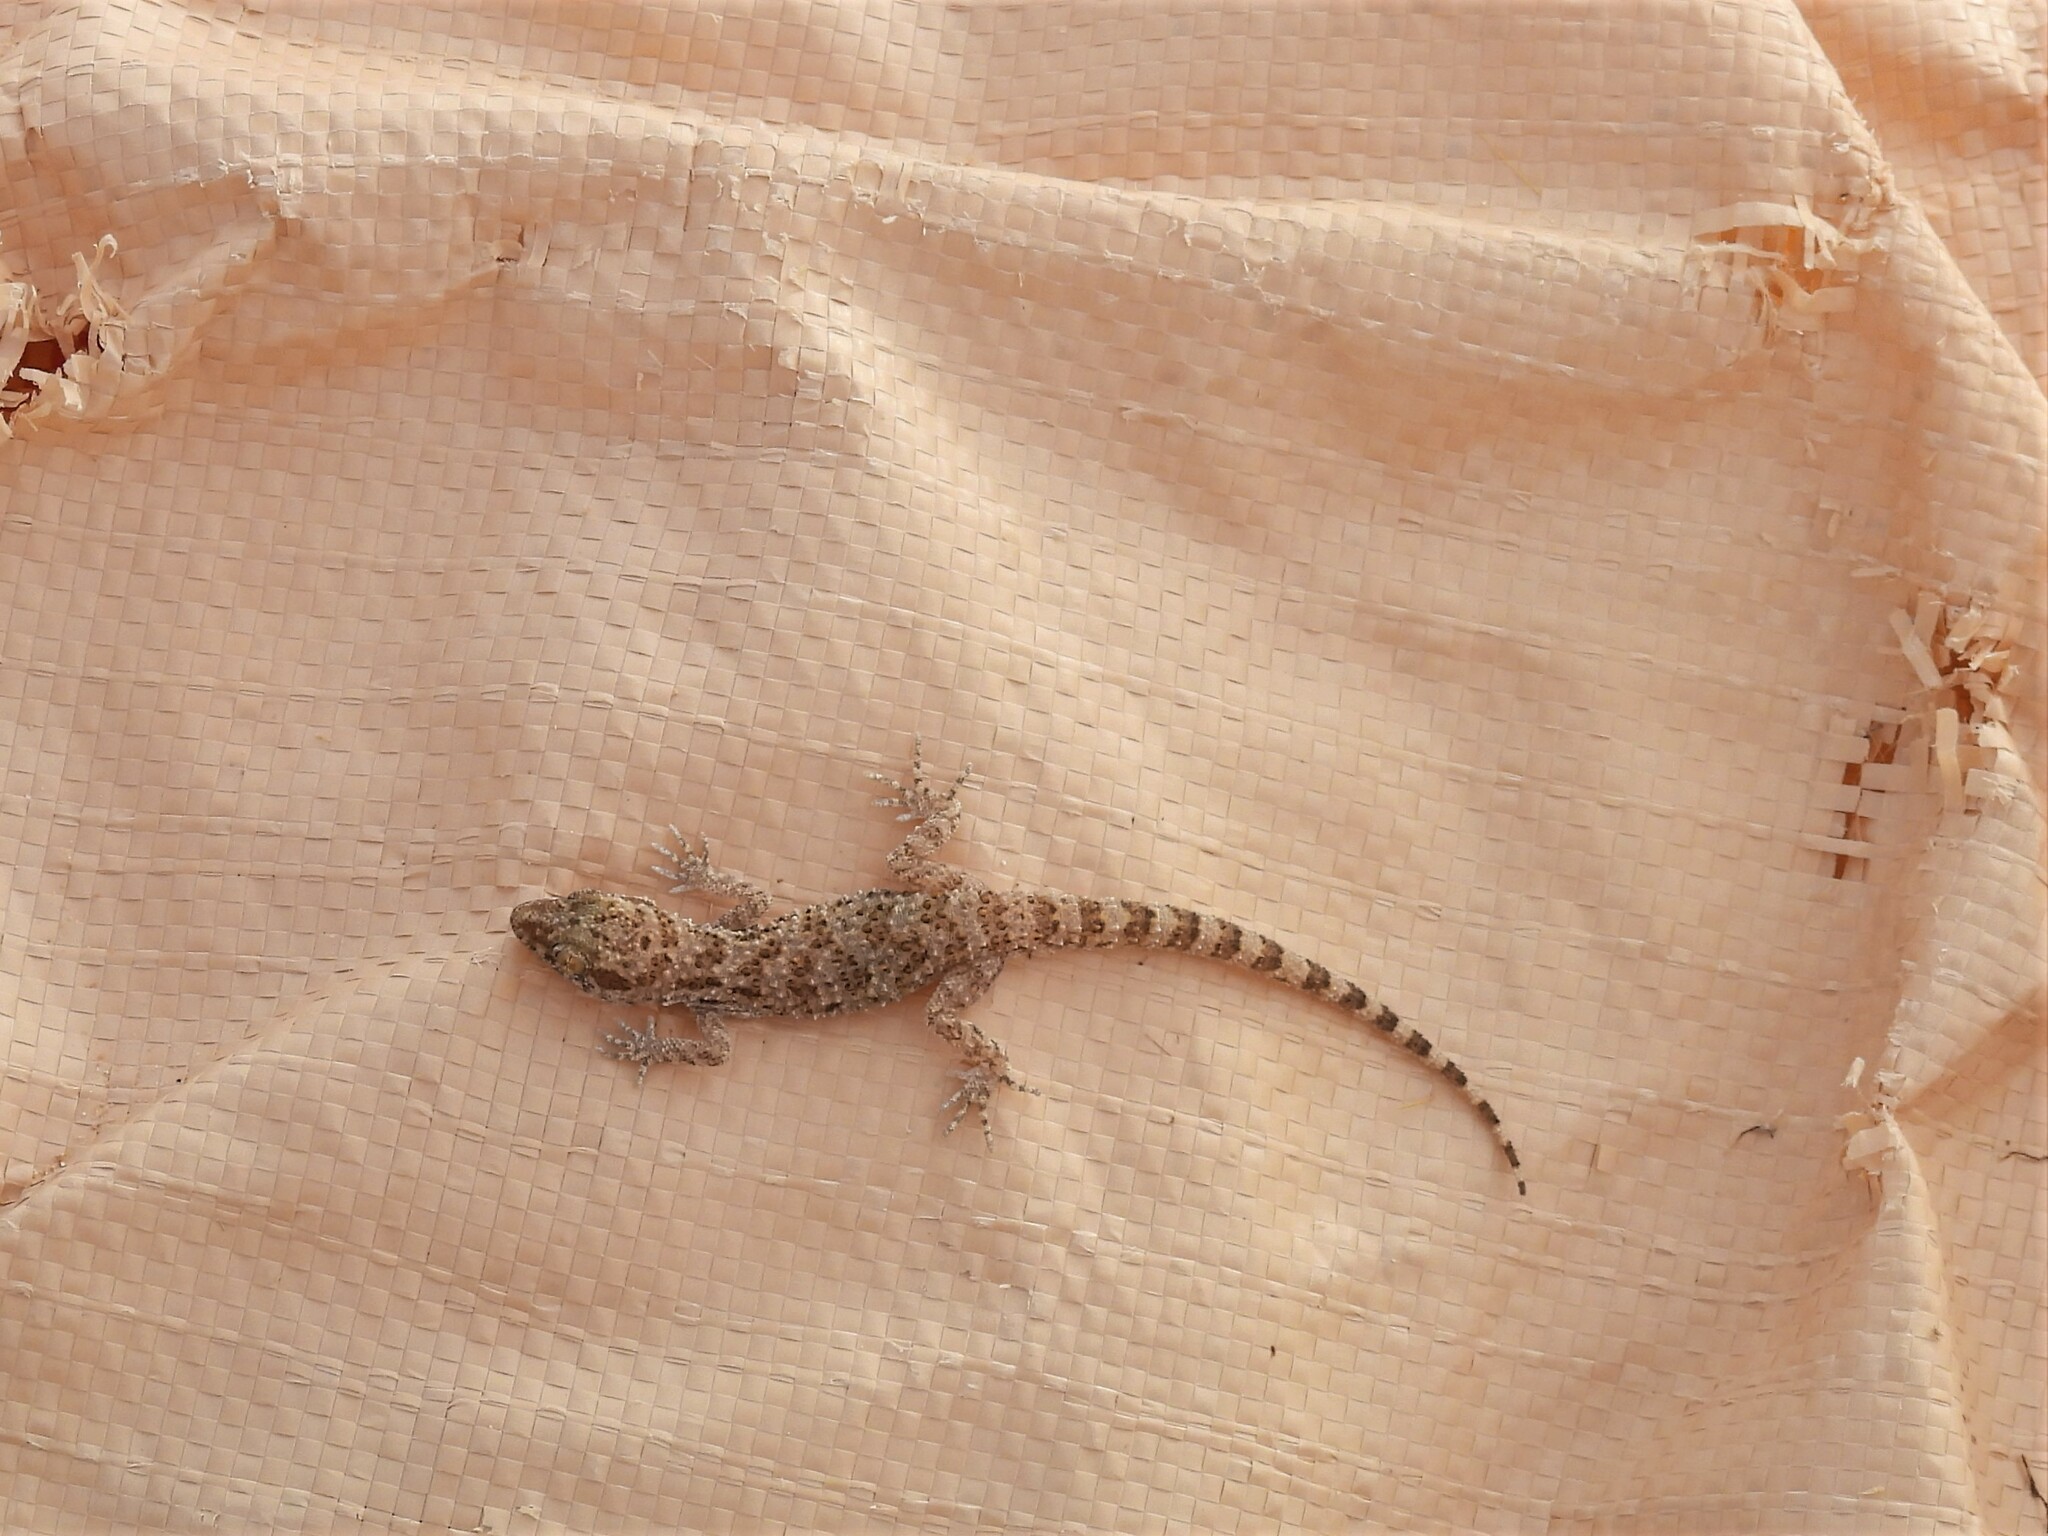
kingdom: Animalia
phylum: Chordata
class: Squamata
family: Gekkonidae
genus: Bunopus
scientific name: Bunopus tuberculatus
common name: Southern tuberculated gecko
